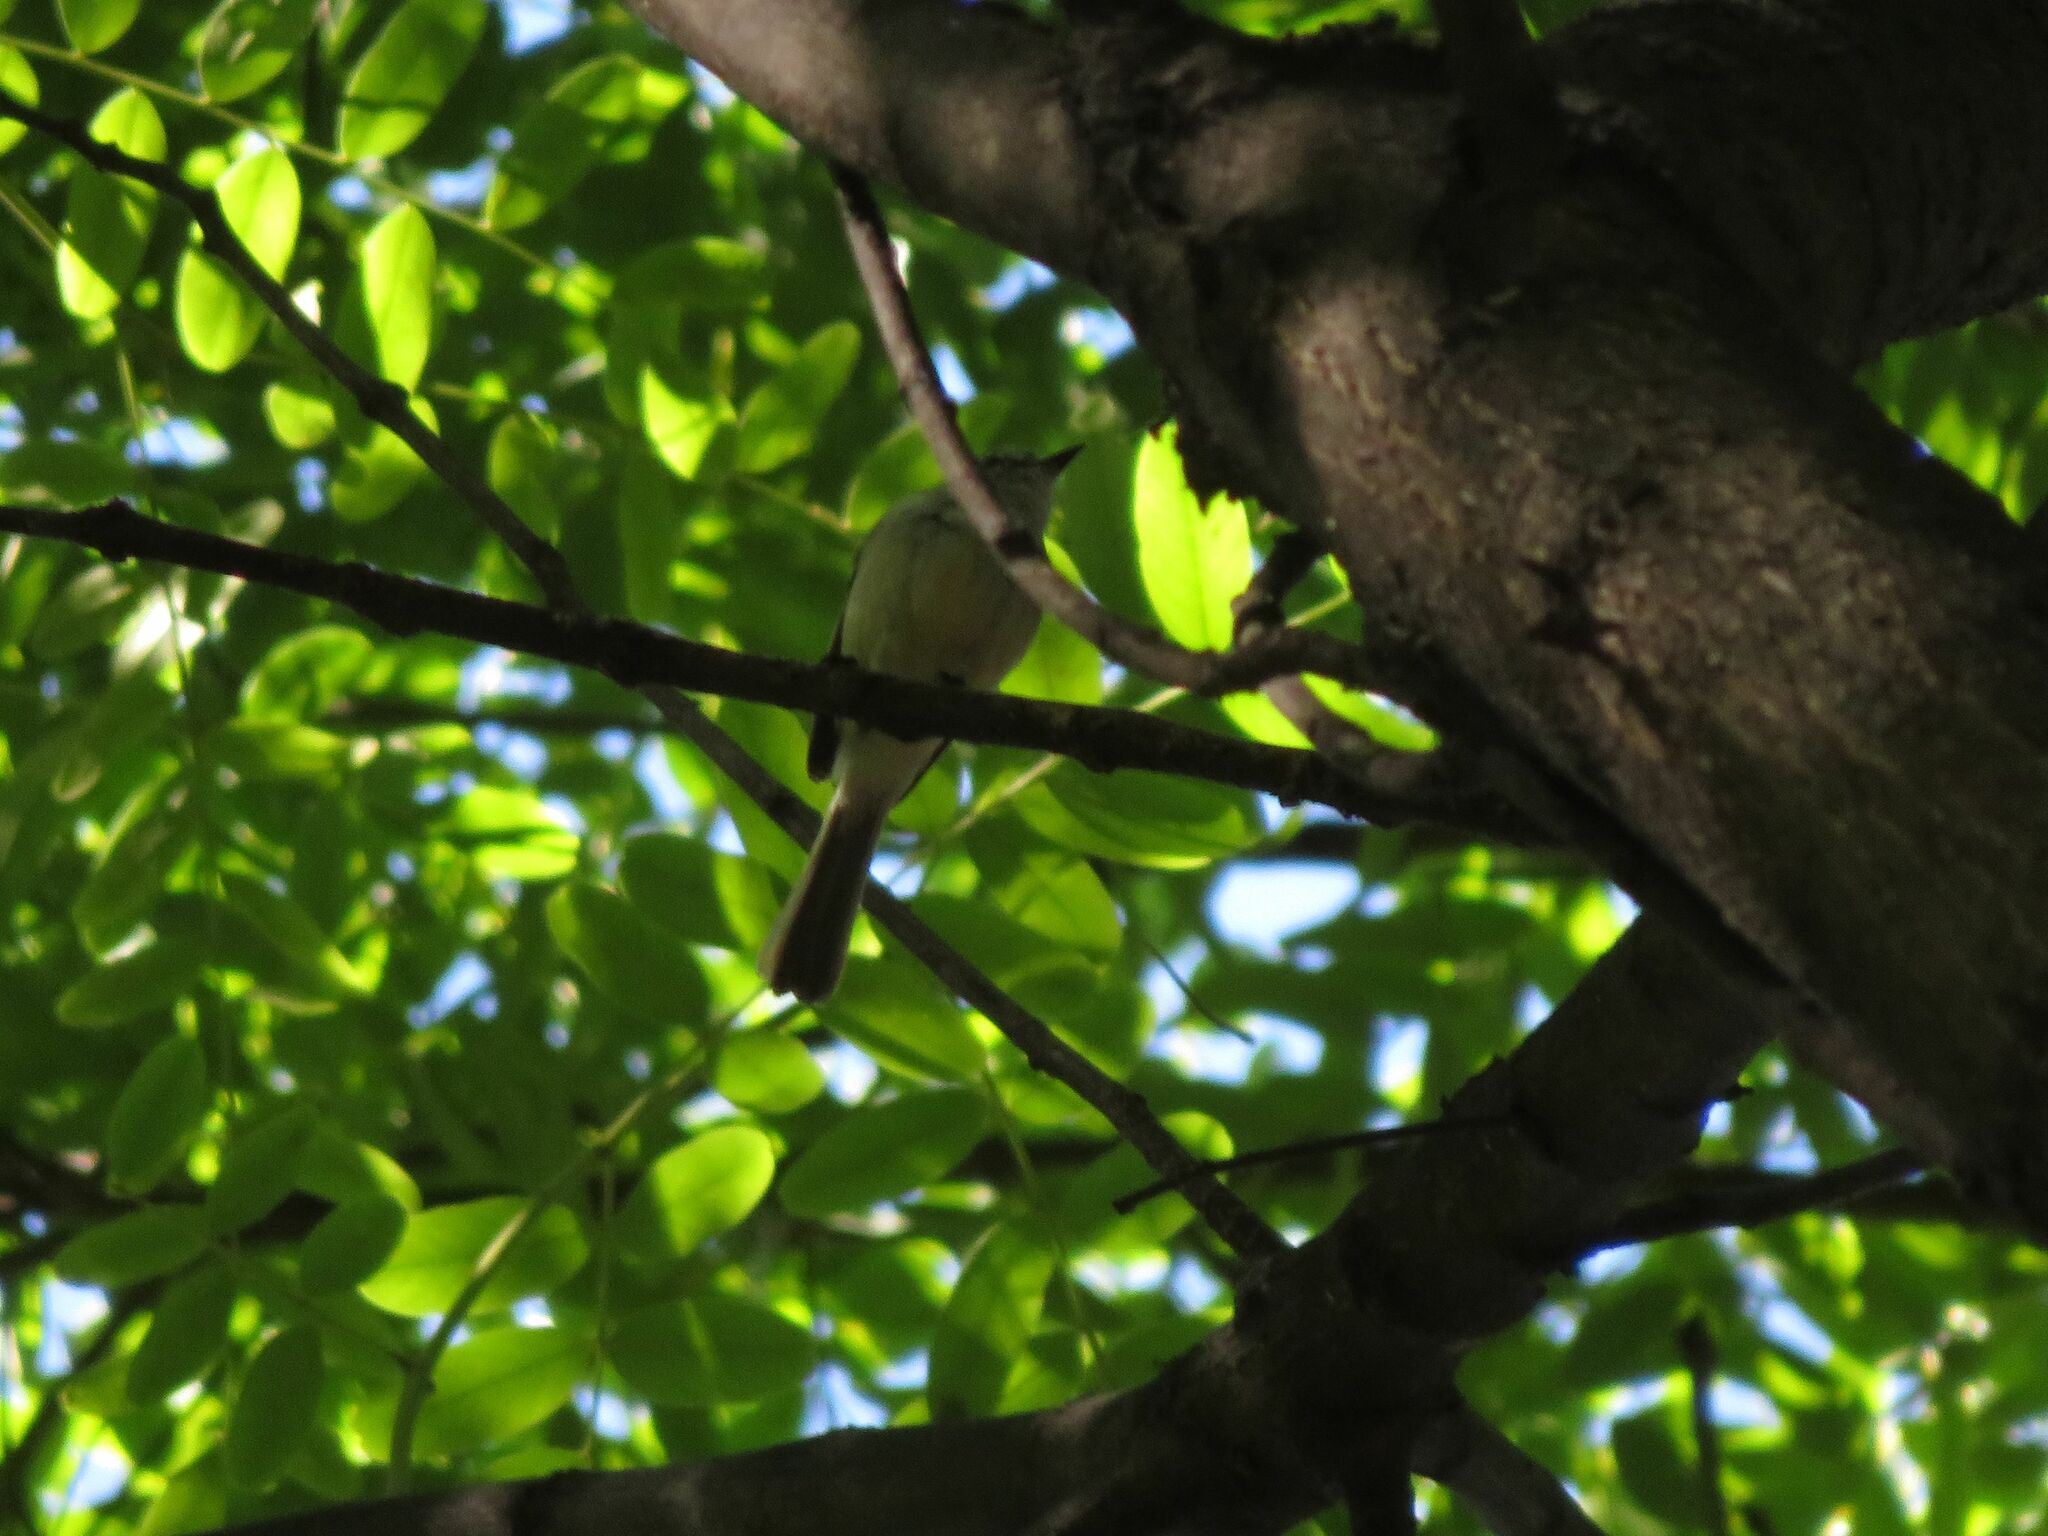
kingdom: Animalia
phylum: Chordata
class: Aves
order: Passeriformes
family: Tyrannidae
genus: Serpophaga
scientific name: Serpophaga subcristata
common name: White-crested tyrannulet
